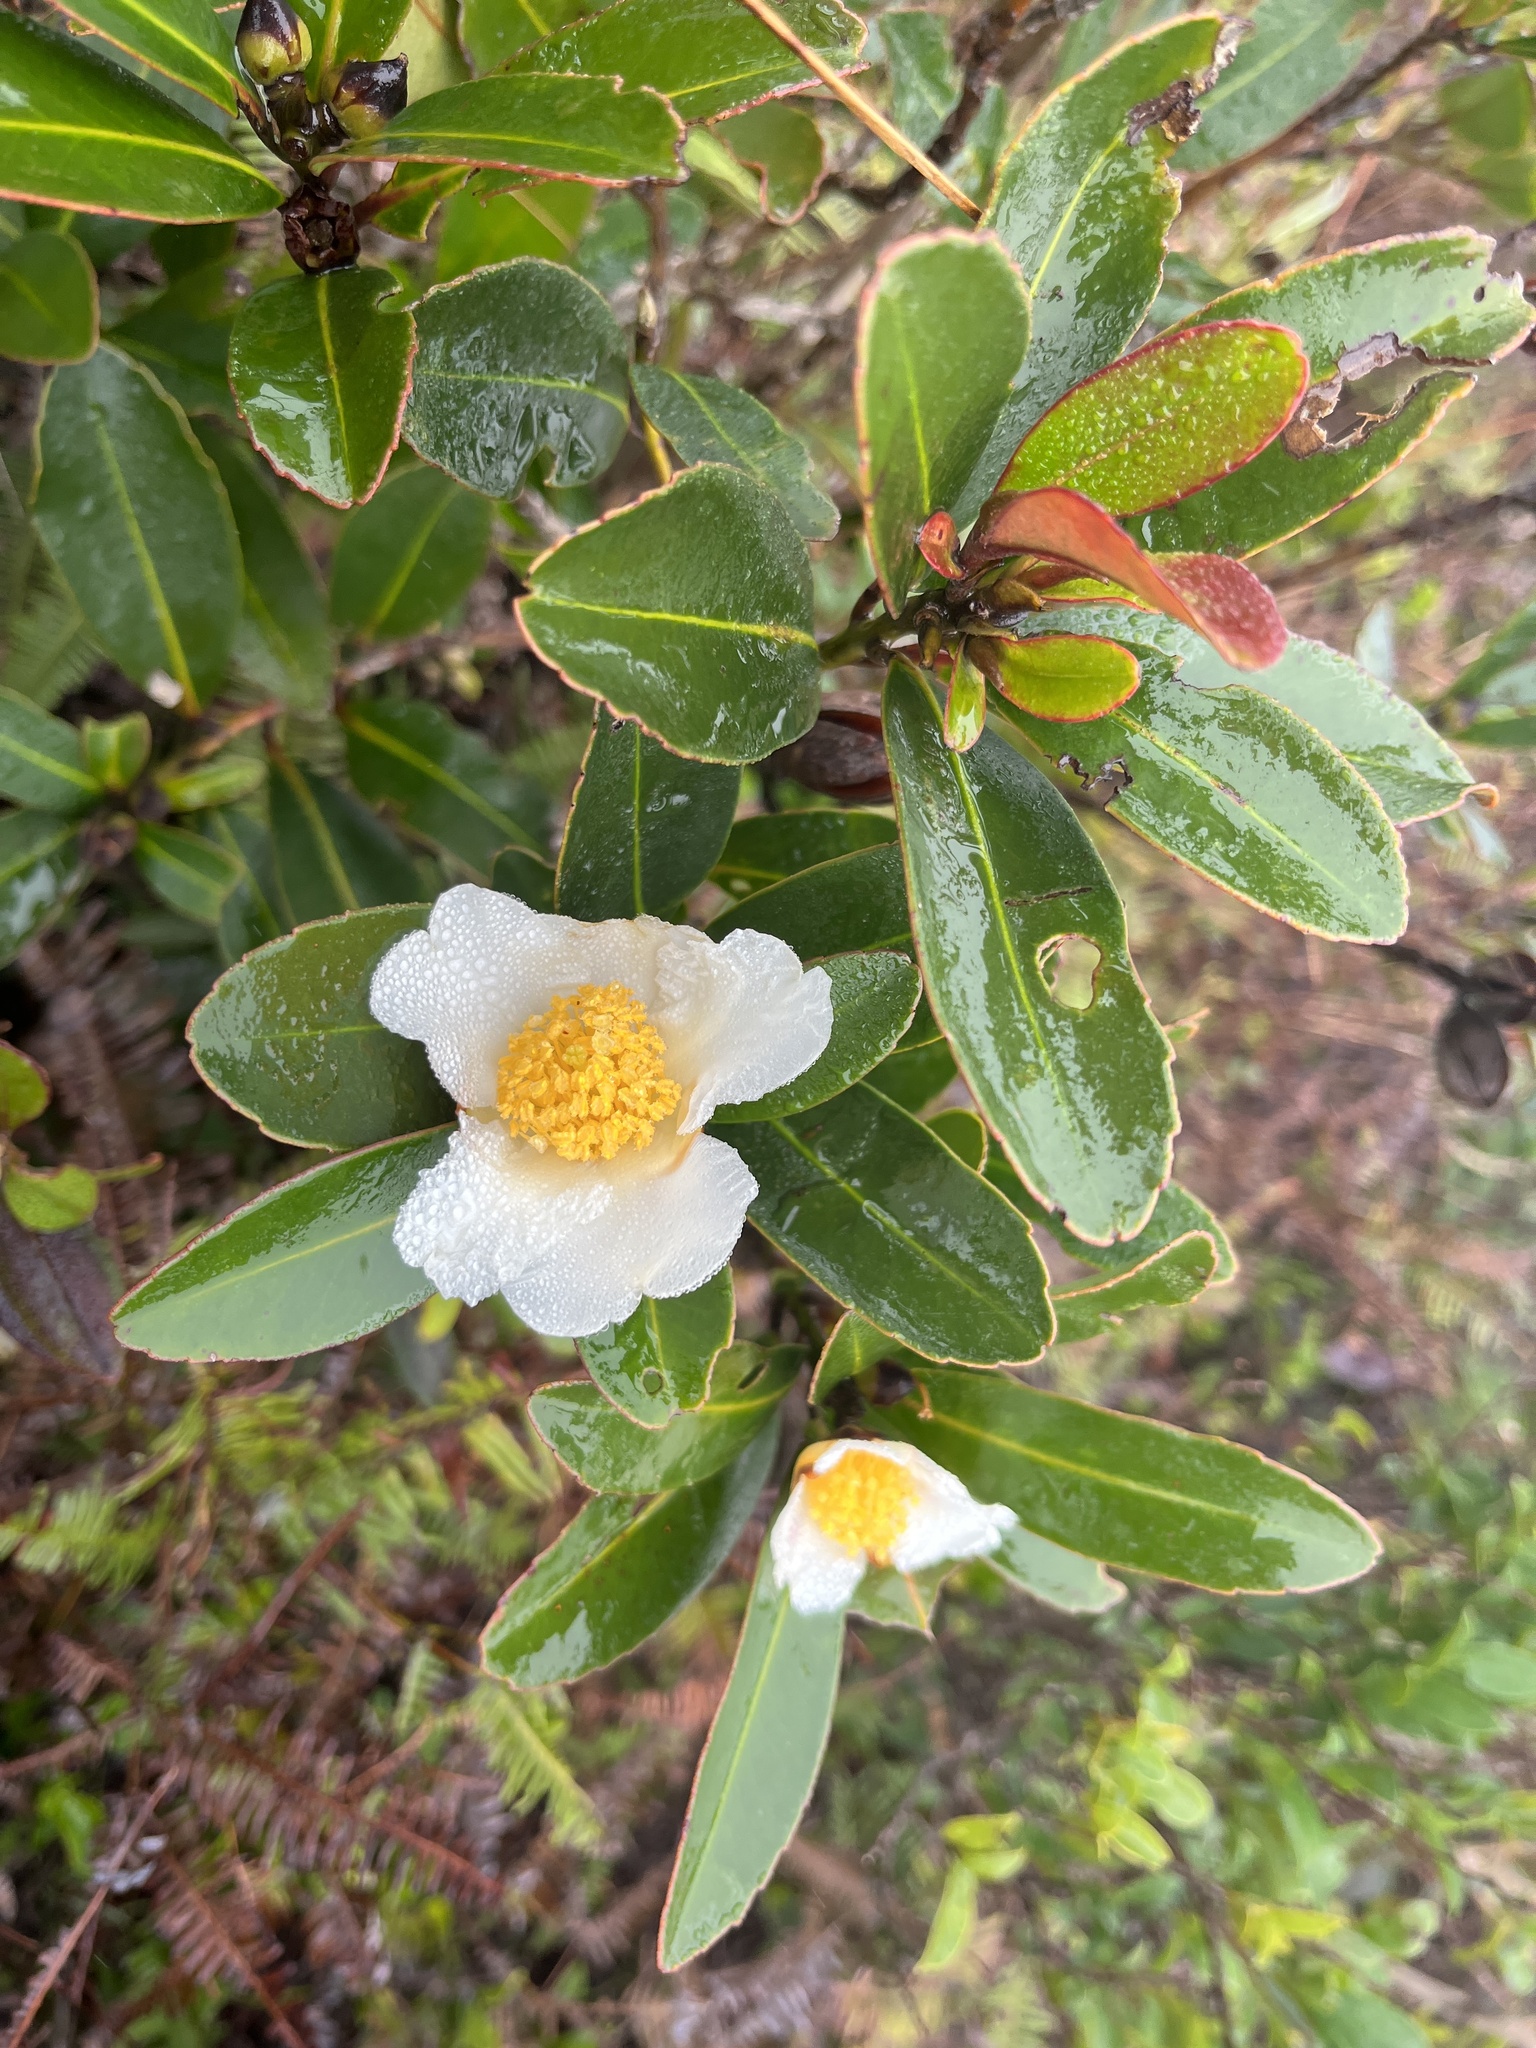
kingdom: Plantae
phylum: Tracheophyta
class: Magnoliopsida
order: Ericales
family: Theaceae
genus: Polyspora
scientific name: Polyspora axillaris
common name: Fried egg tree
